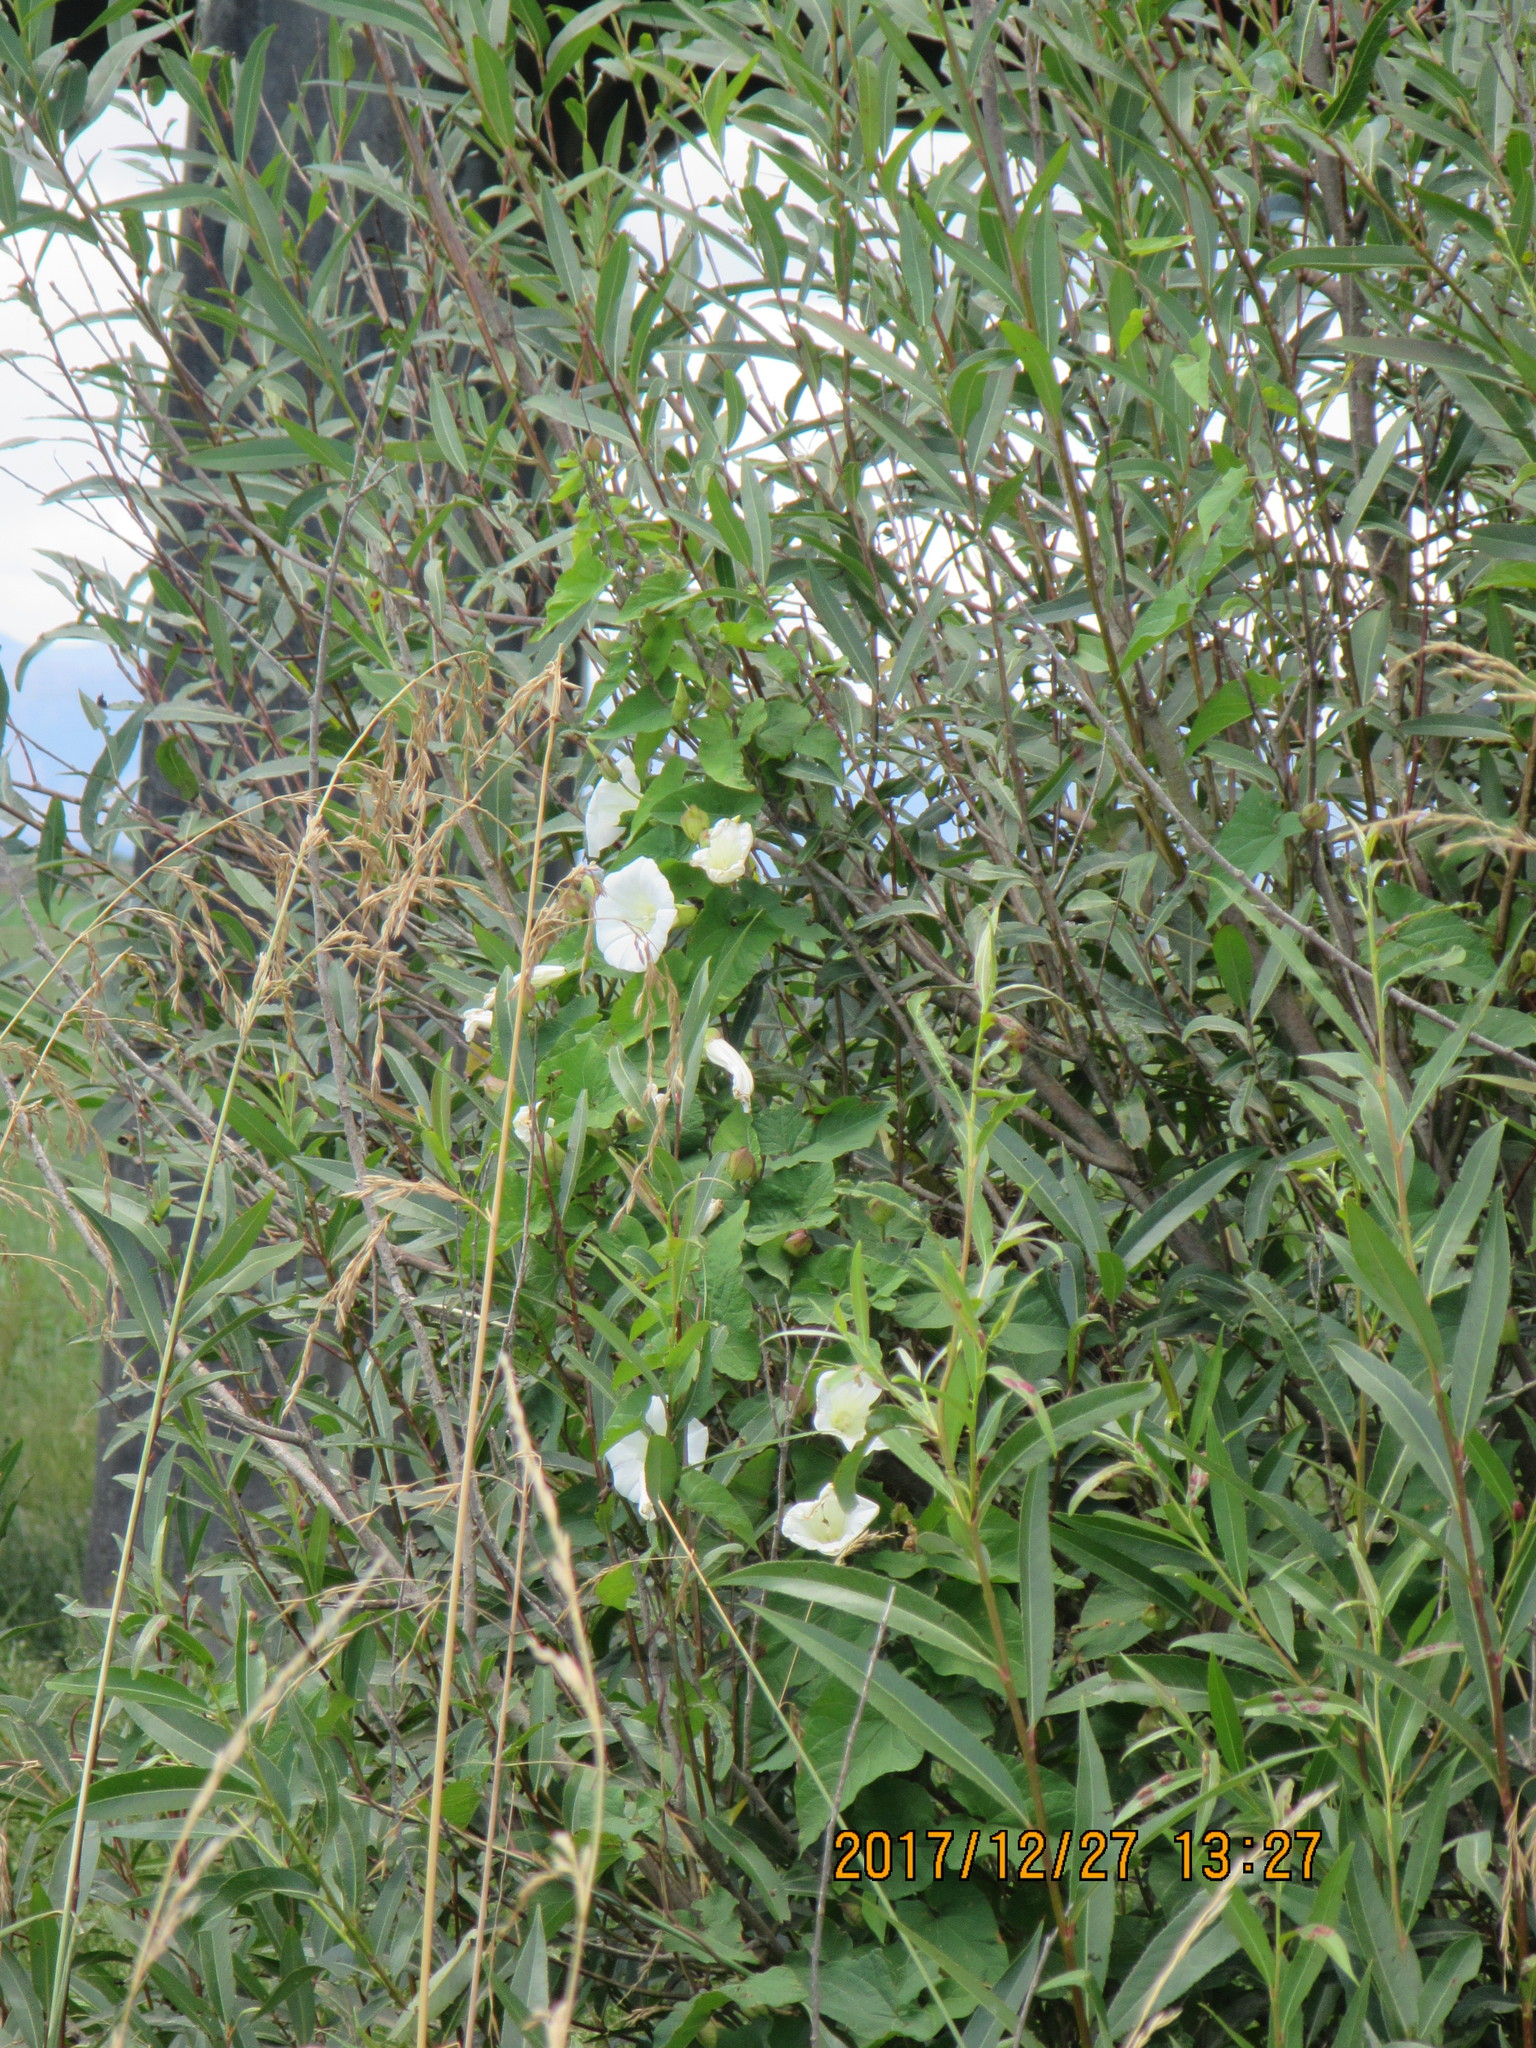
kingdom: Plantae
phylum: Tracheophyta
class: Magnoliopsida
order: Solanales
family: Convolvulaceae
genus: Calystegia
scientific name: Calystegia silvatica
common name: Large bindweed
